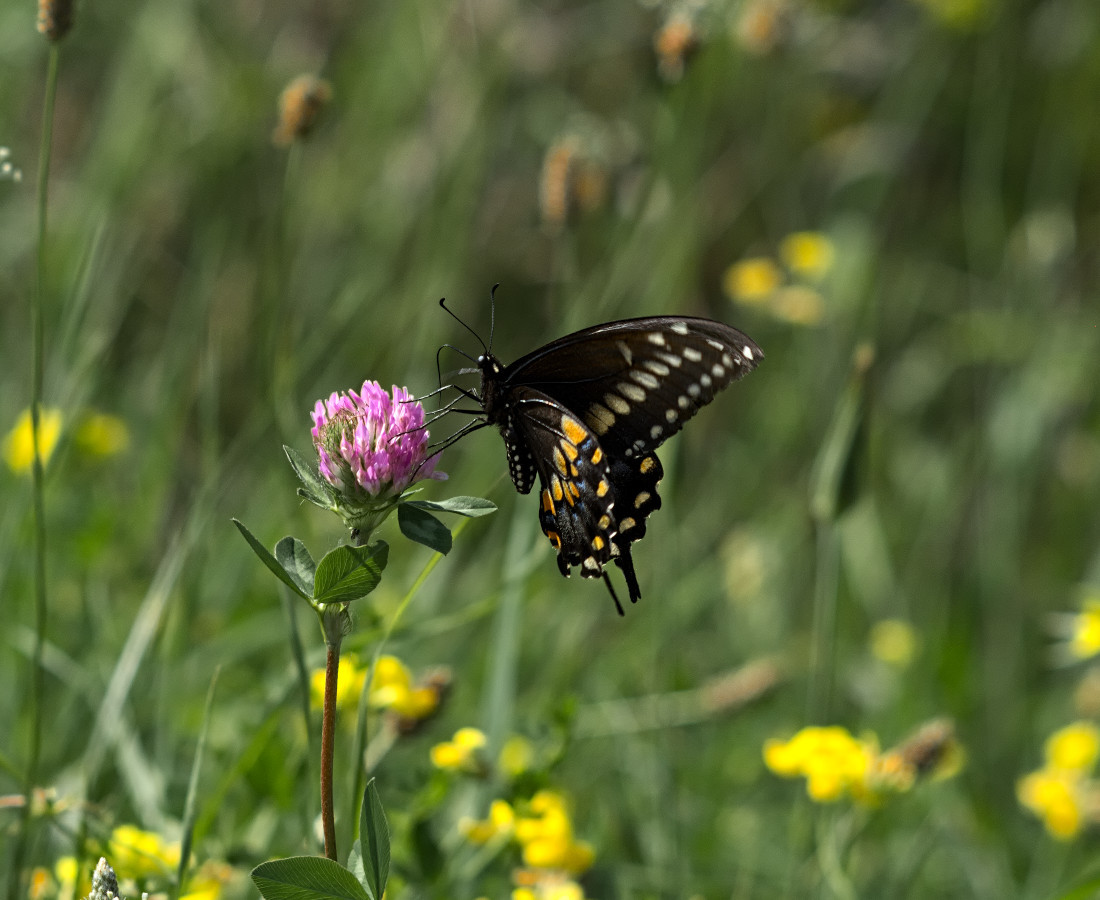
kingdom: Animalia
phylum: Arthropoda
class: Insecta
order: Lepidoptera
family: Papilionidae
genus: Papilio
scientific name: Papilio polyxenes
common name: Black swallowtail
